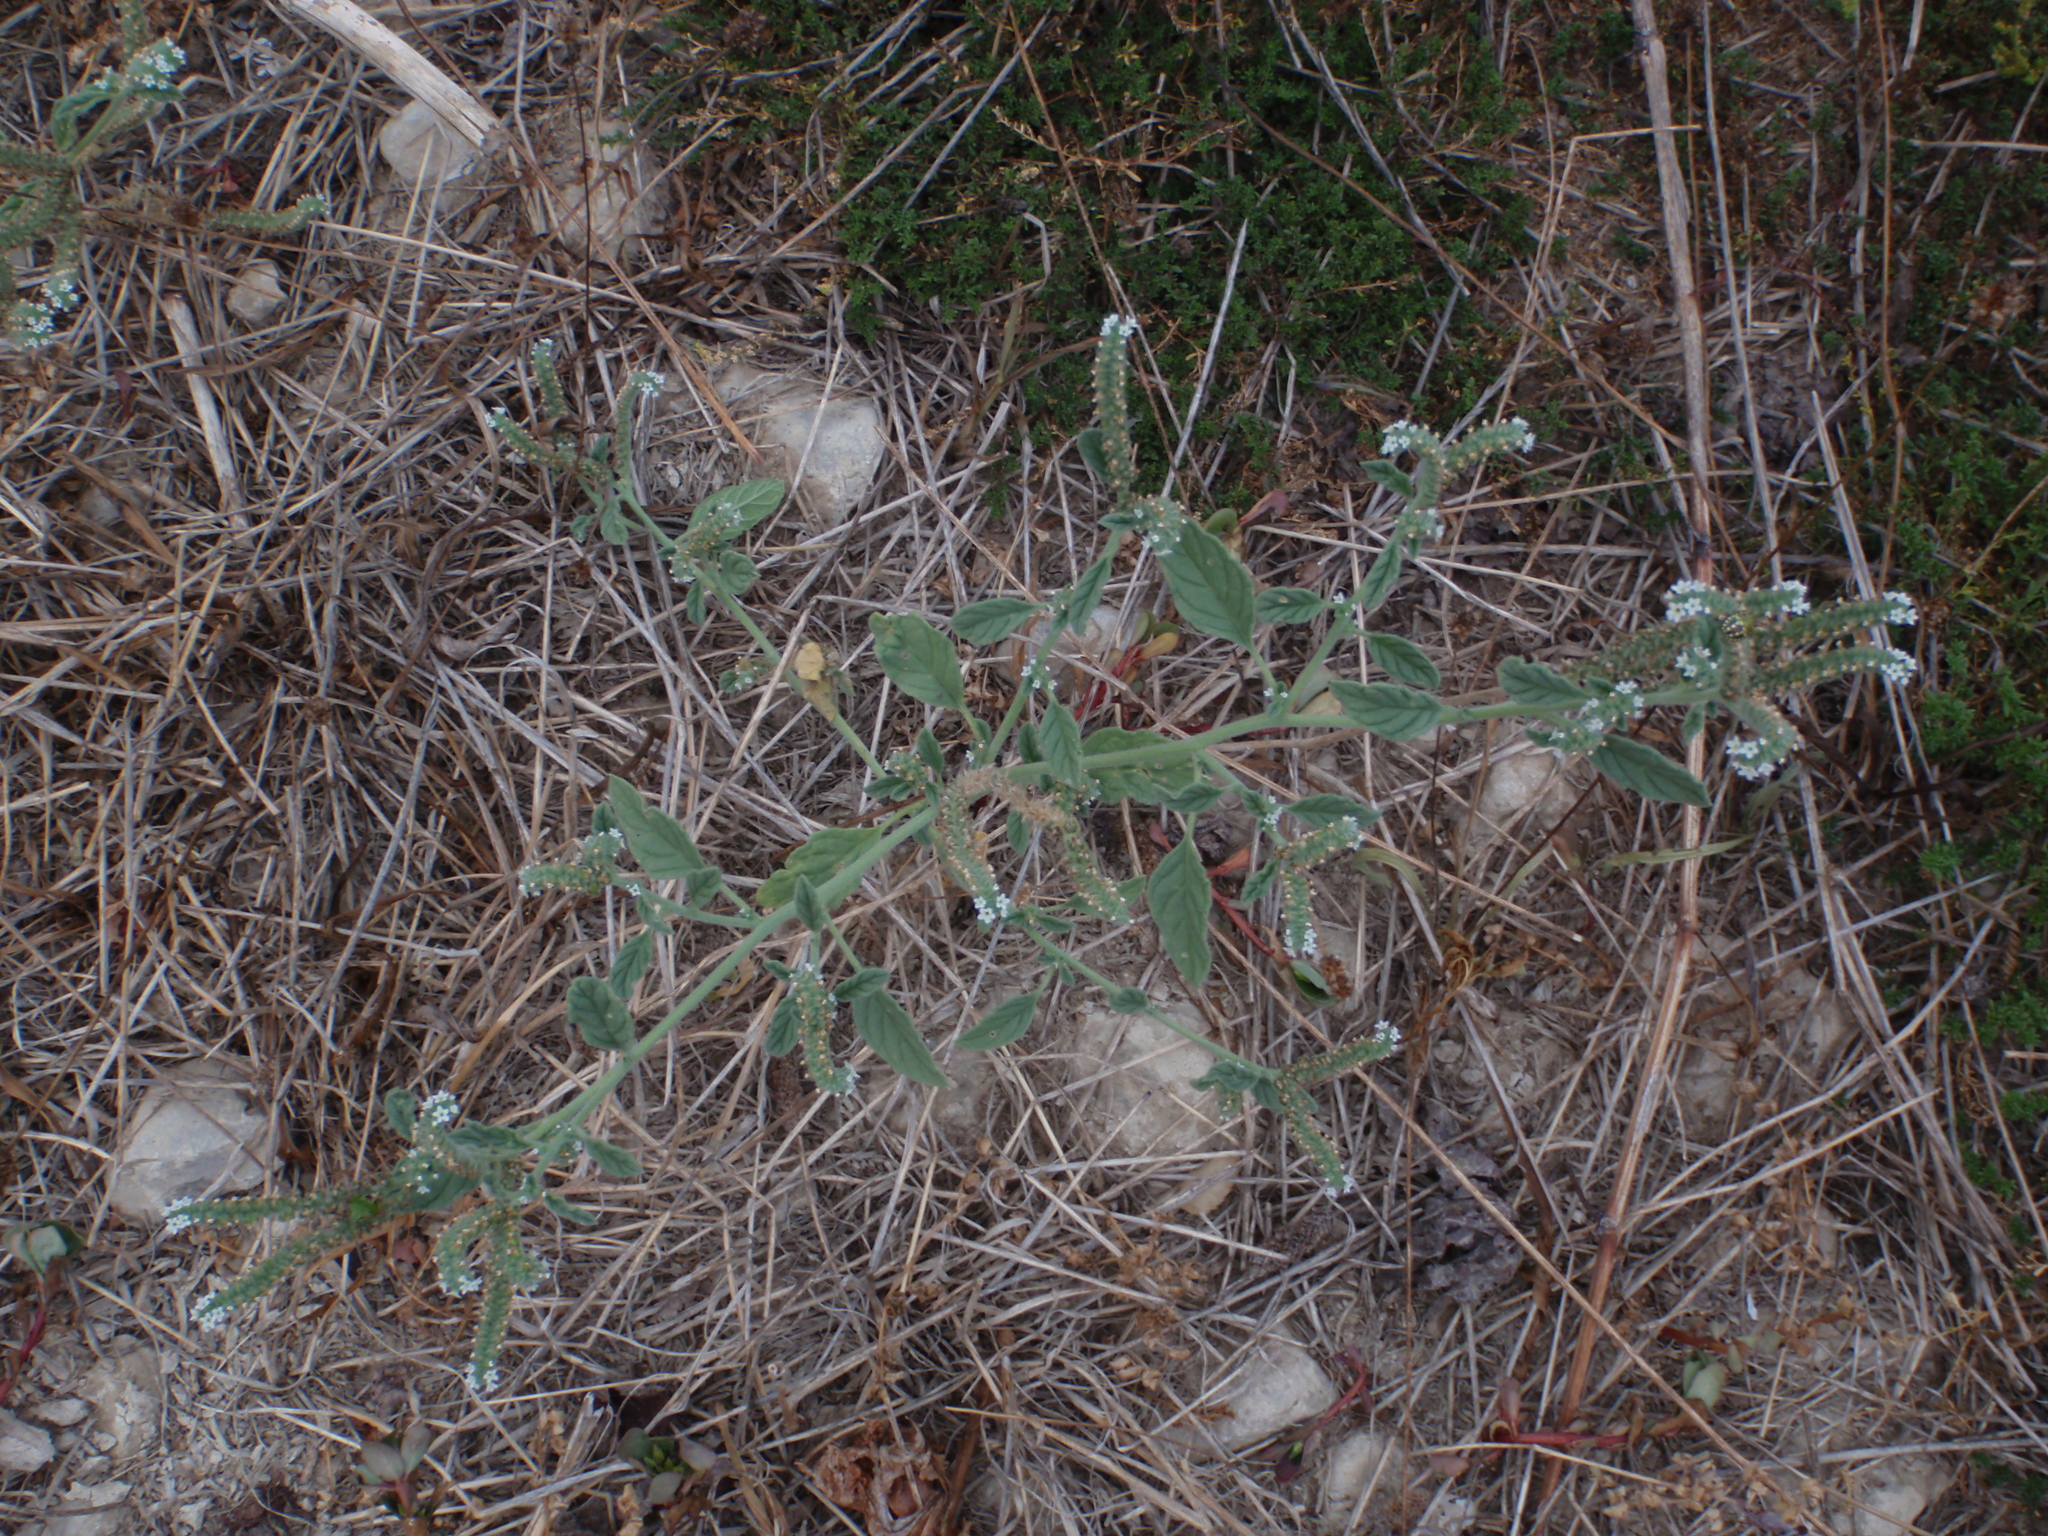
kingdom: Plantae
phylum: Tracheophyta
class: Magnoliopsida
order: Boraginales
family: Heliotropiaceae
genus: Heliotropium
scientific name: Heliotropium europaeum
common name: European heliotrope
